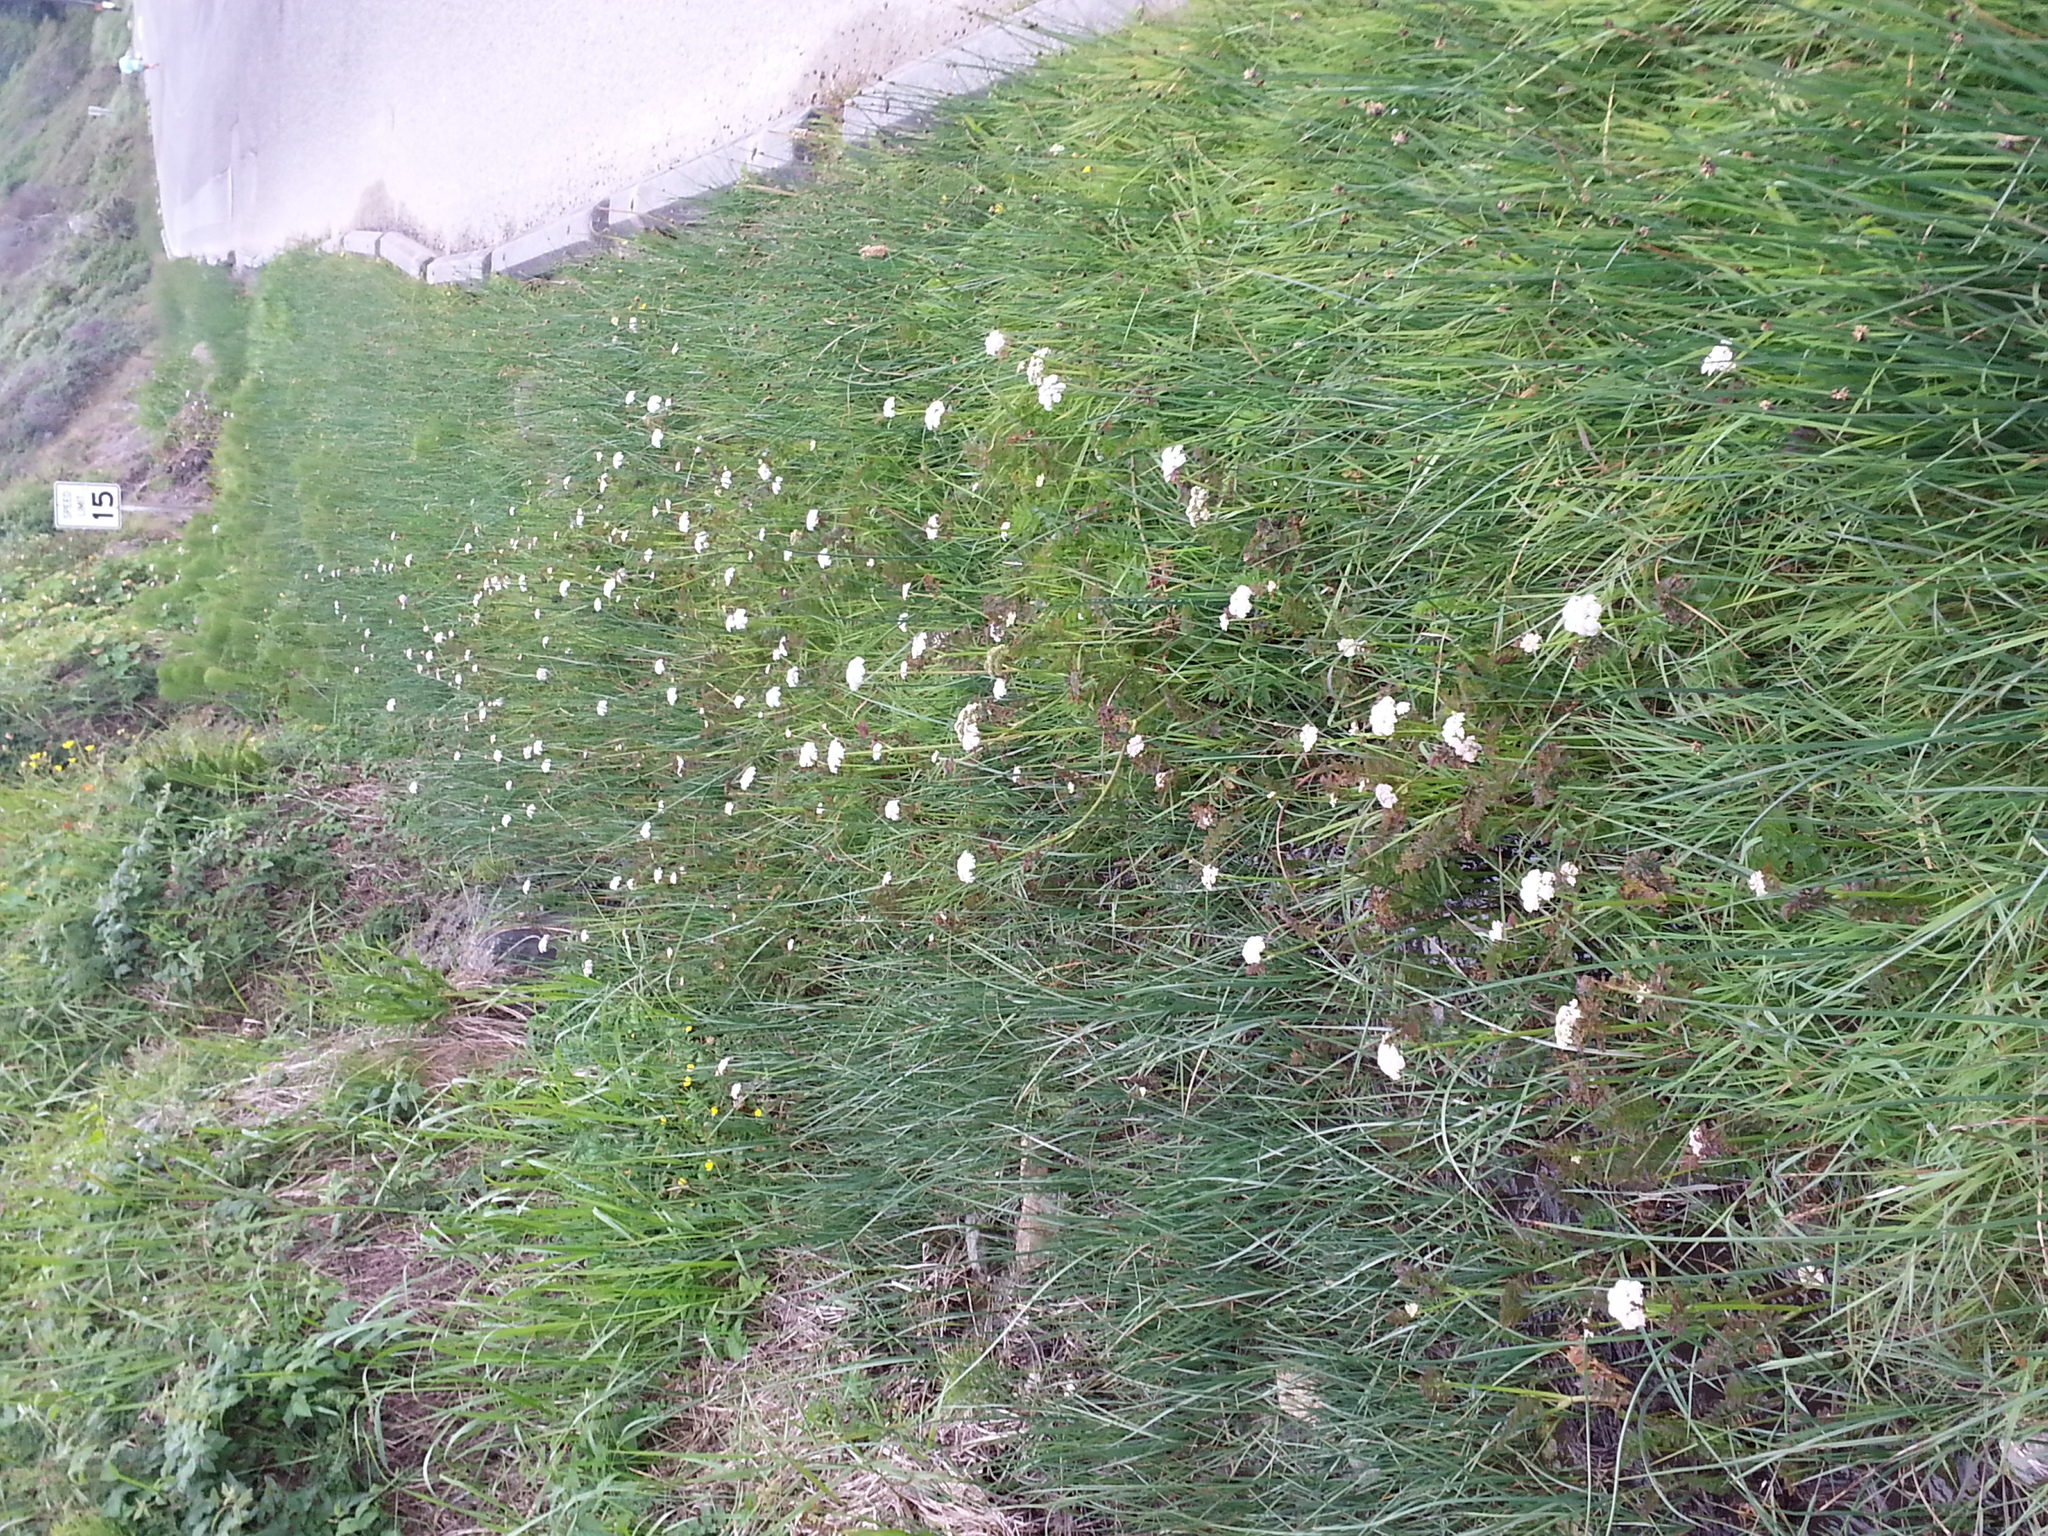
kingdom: Plantae
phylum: Tracheophyta
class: Magnoliopsida
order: Apiales
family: Apiaceae
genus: Oenanthe
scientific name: Oenanthe sarmentosa
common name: American water-parsley
